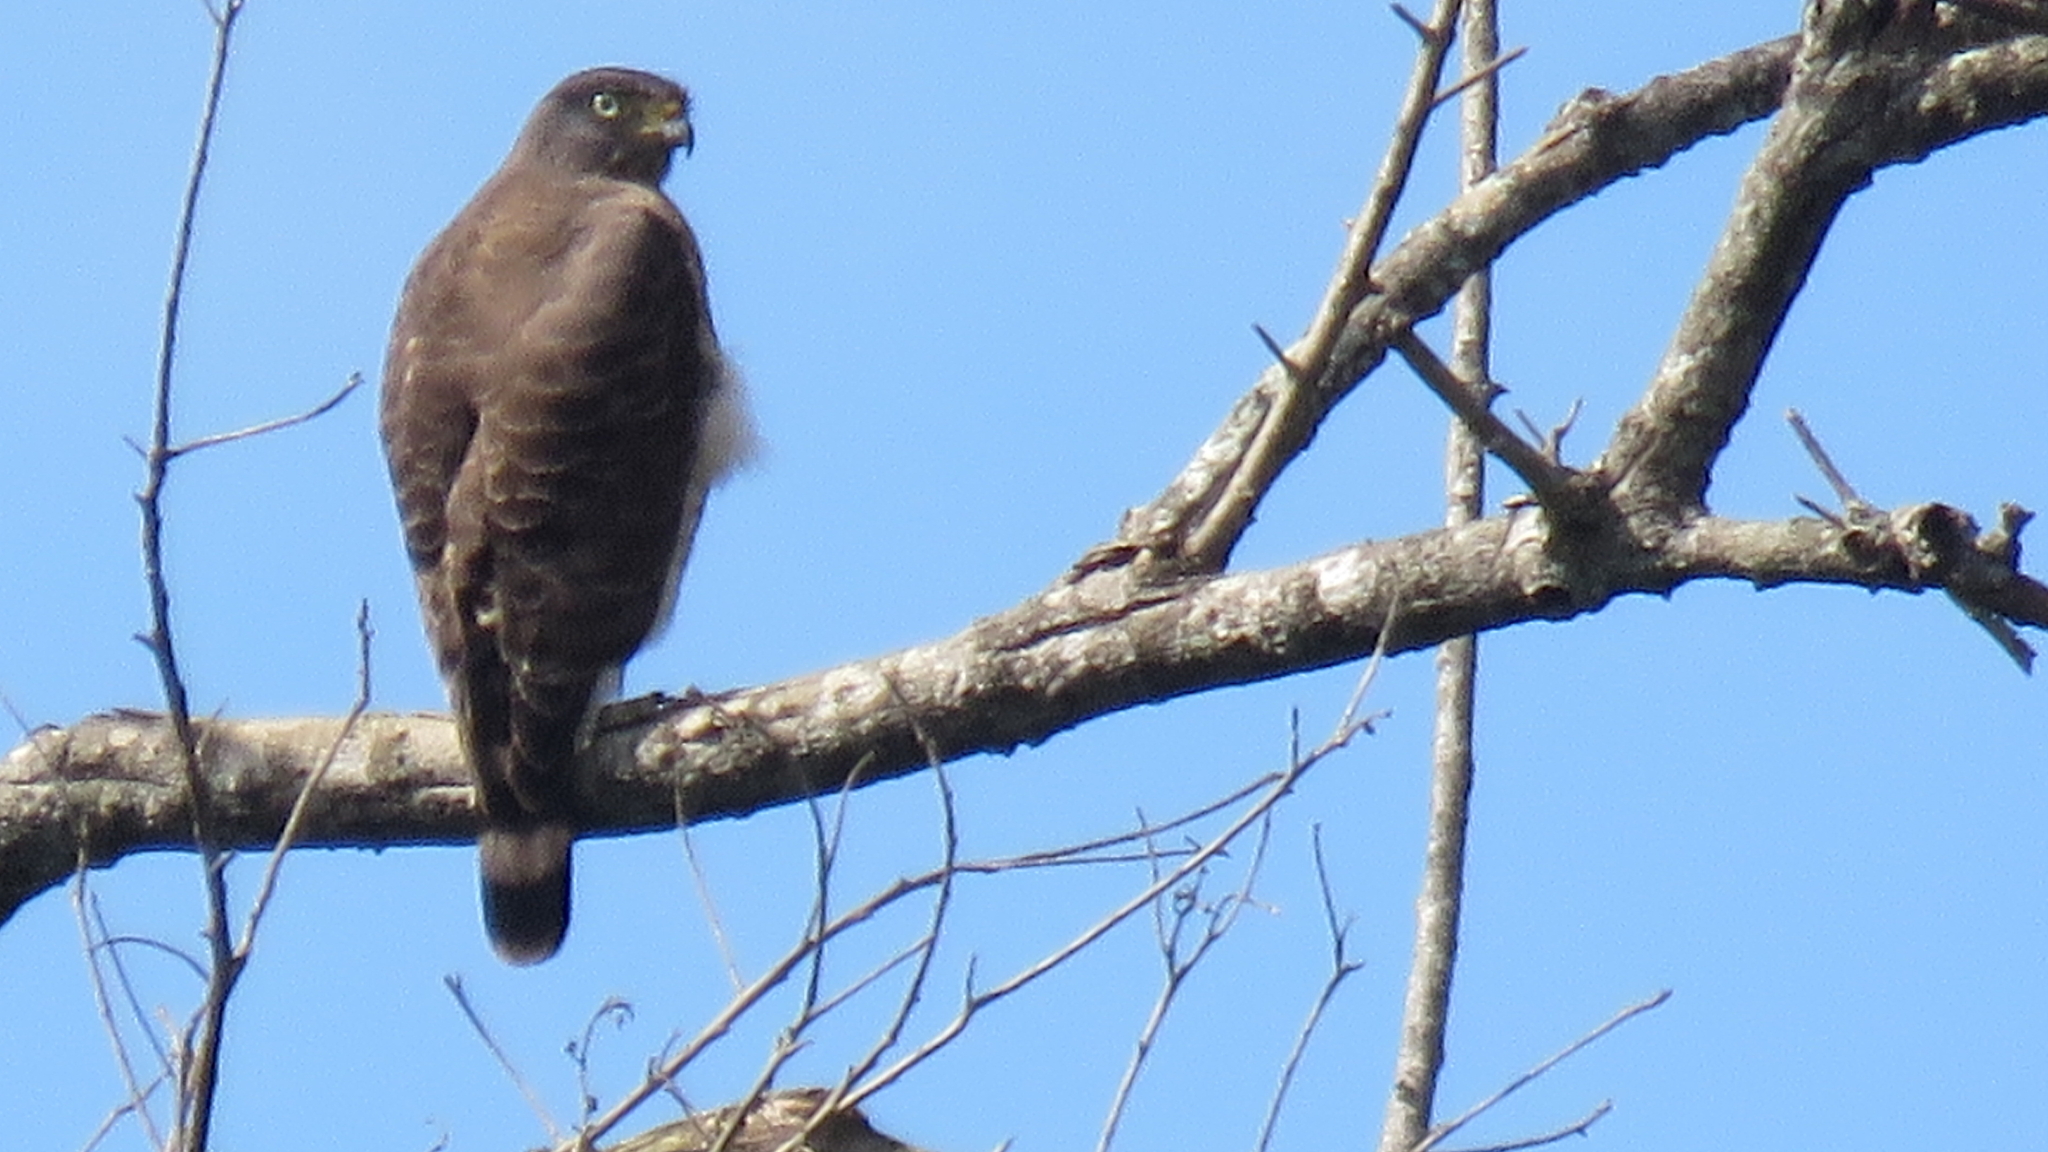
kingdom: Animalia
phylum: Chordata
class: Aves
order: Accipitriformes
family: Accipitridae
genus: Rupornis
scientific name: Rupornis magnirostris
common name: Roadside hawk
